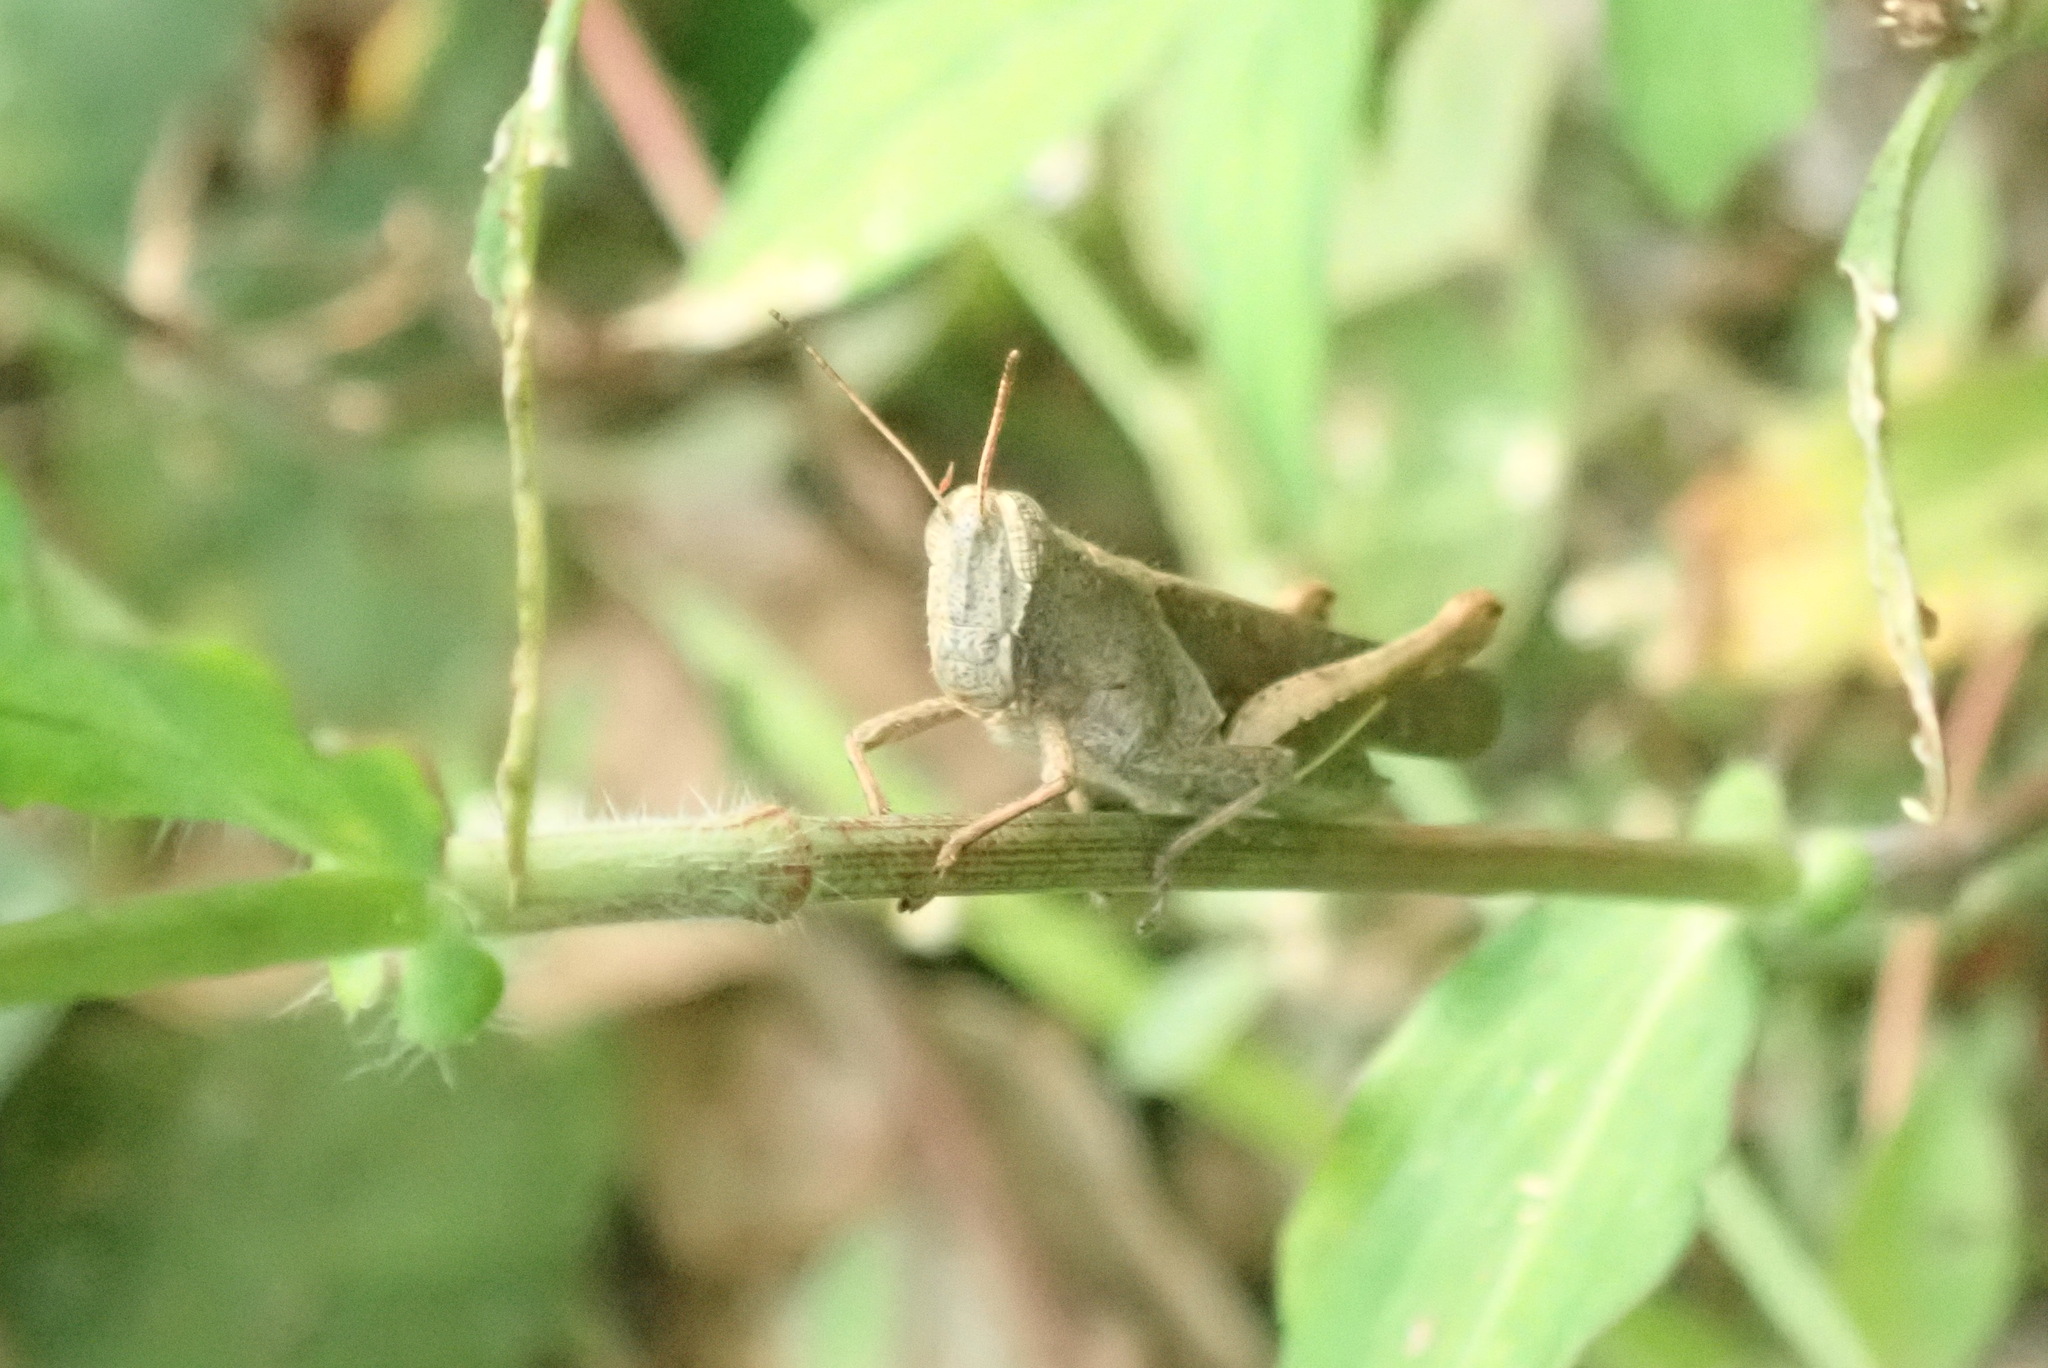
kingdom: Animalia
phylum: Arthropoda
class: Insecta
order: Orthoptera
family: Acrididae
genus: Abracris
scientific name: Abracris flavolineata
